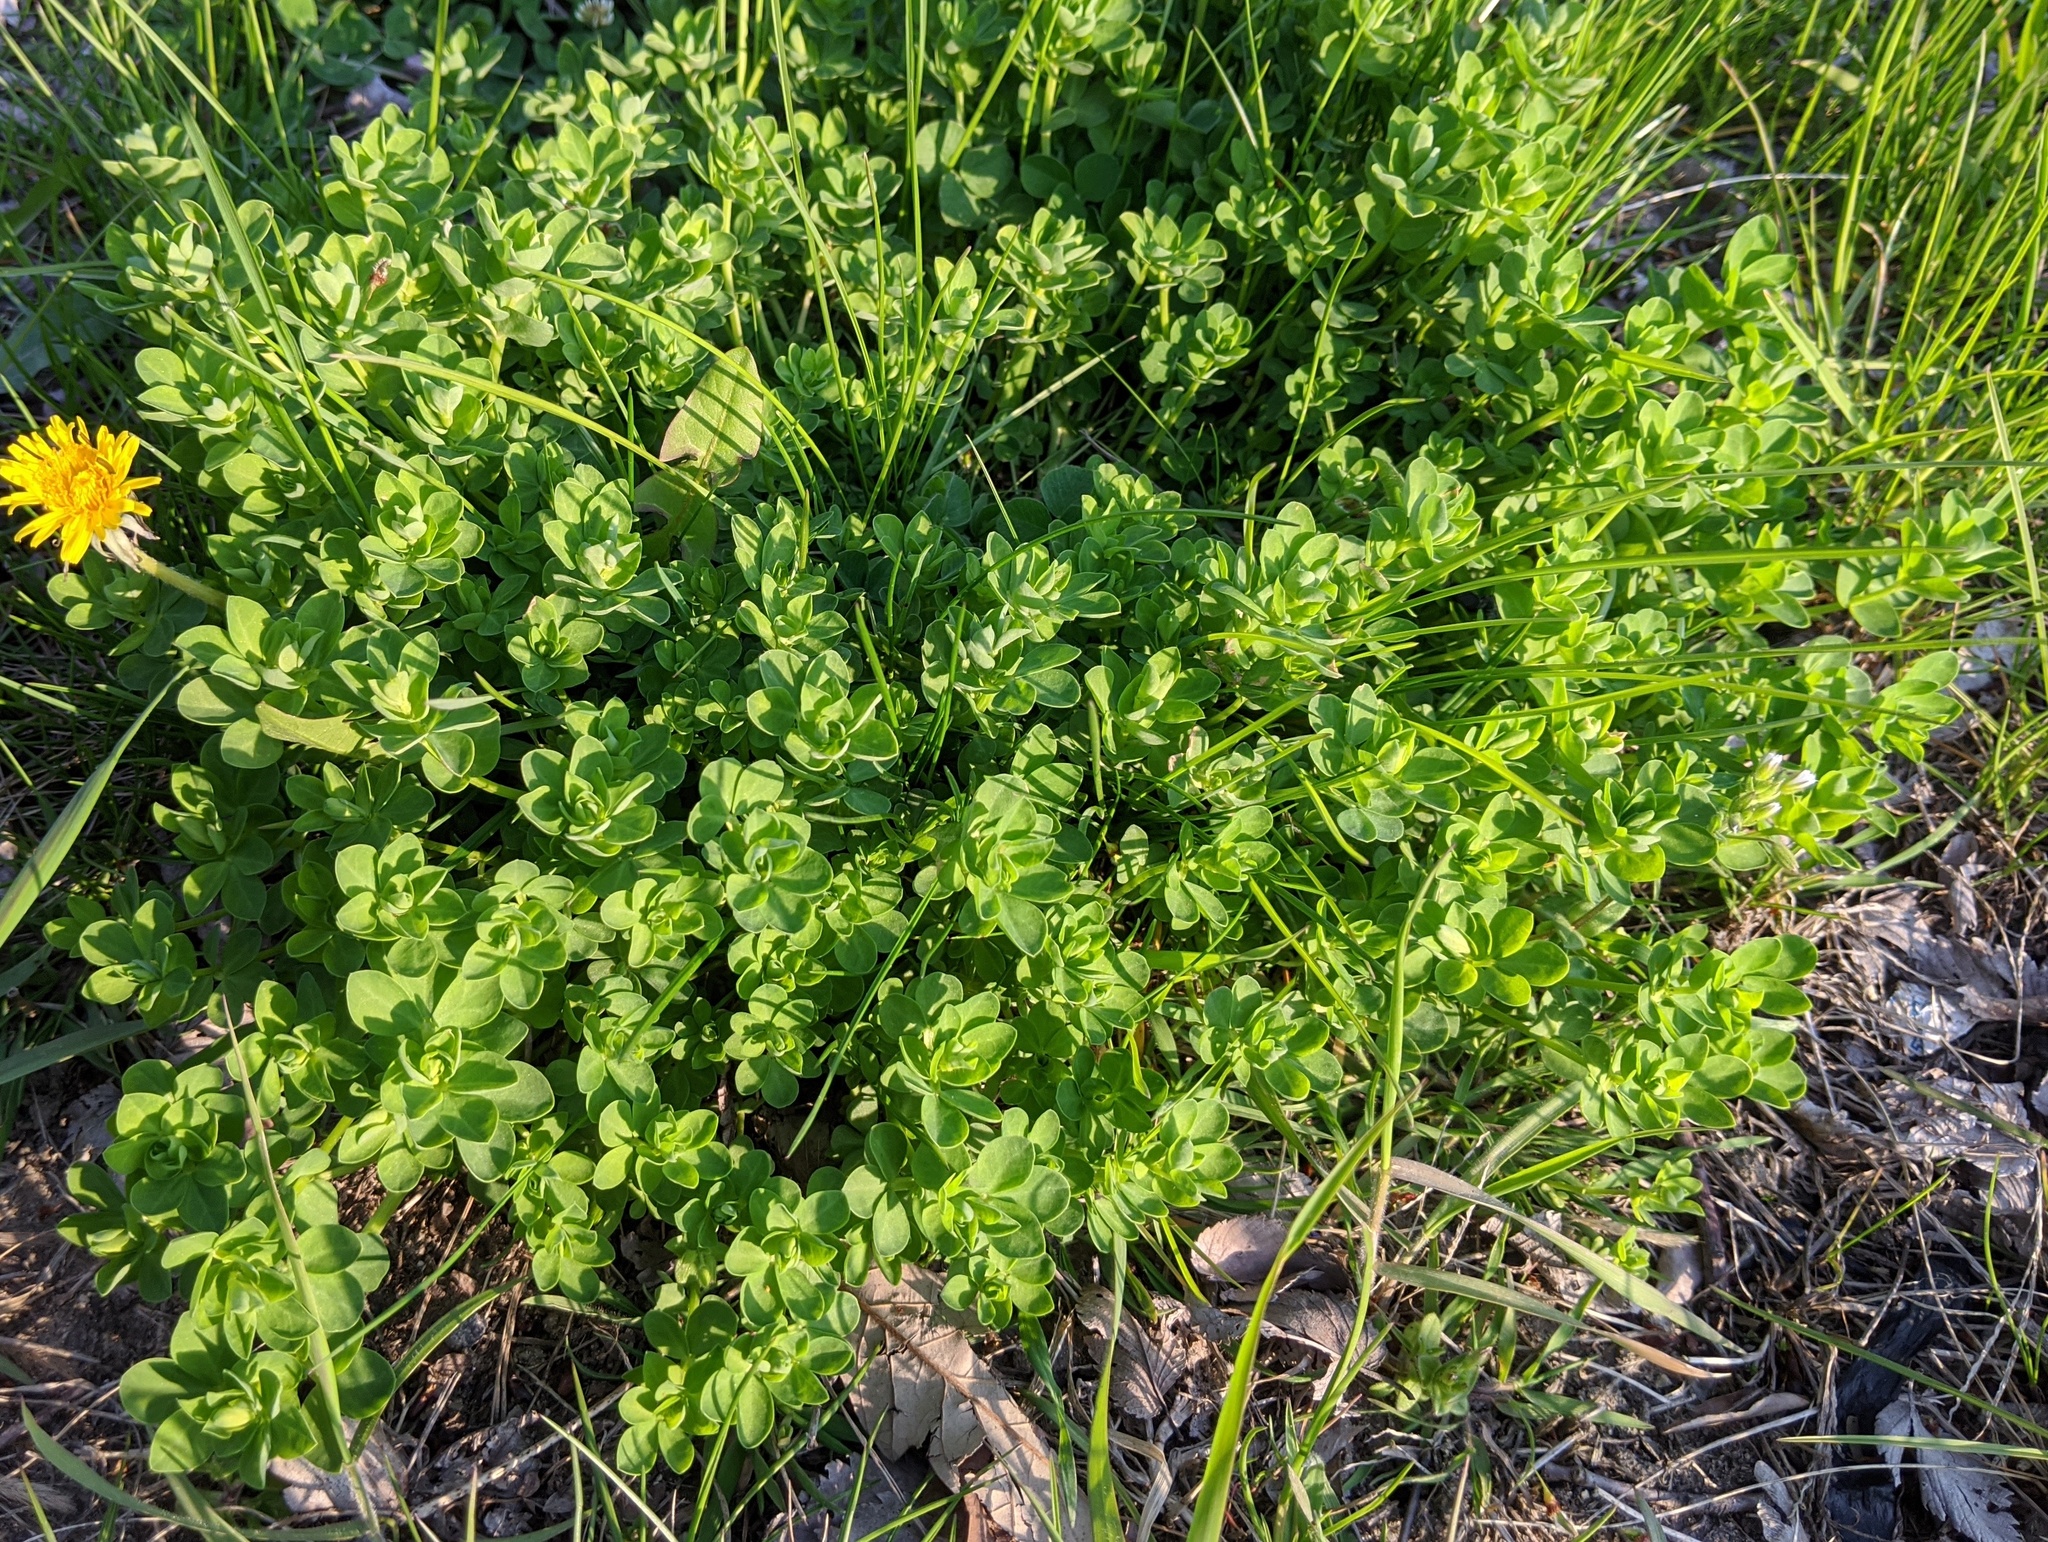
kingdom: Plantae
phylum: Tracheophyta
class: Magnoliopsida
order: Fabales
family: Fabaceae
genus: Lotus
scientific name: Lotus corniculatus
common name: Common bird's-foot-trefoil
